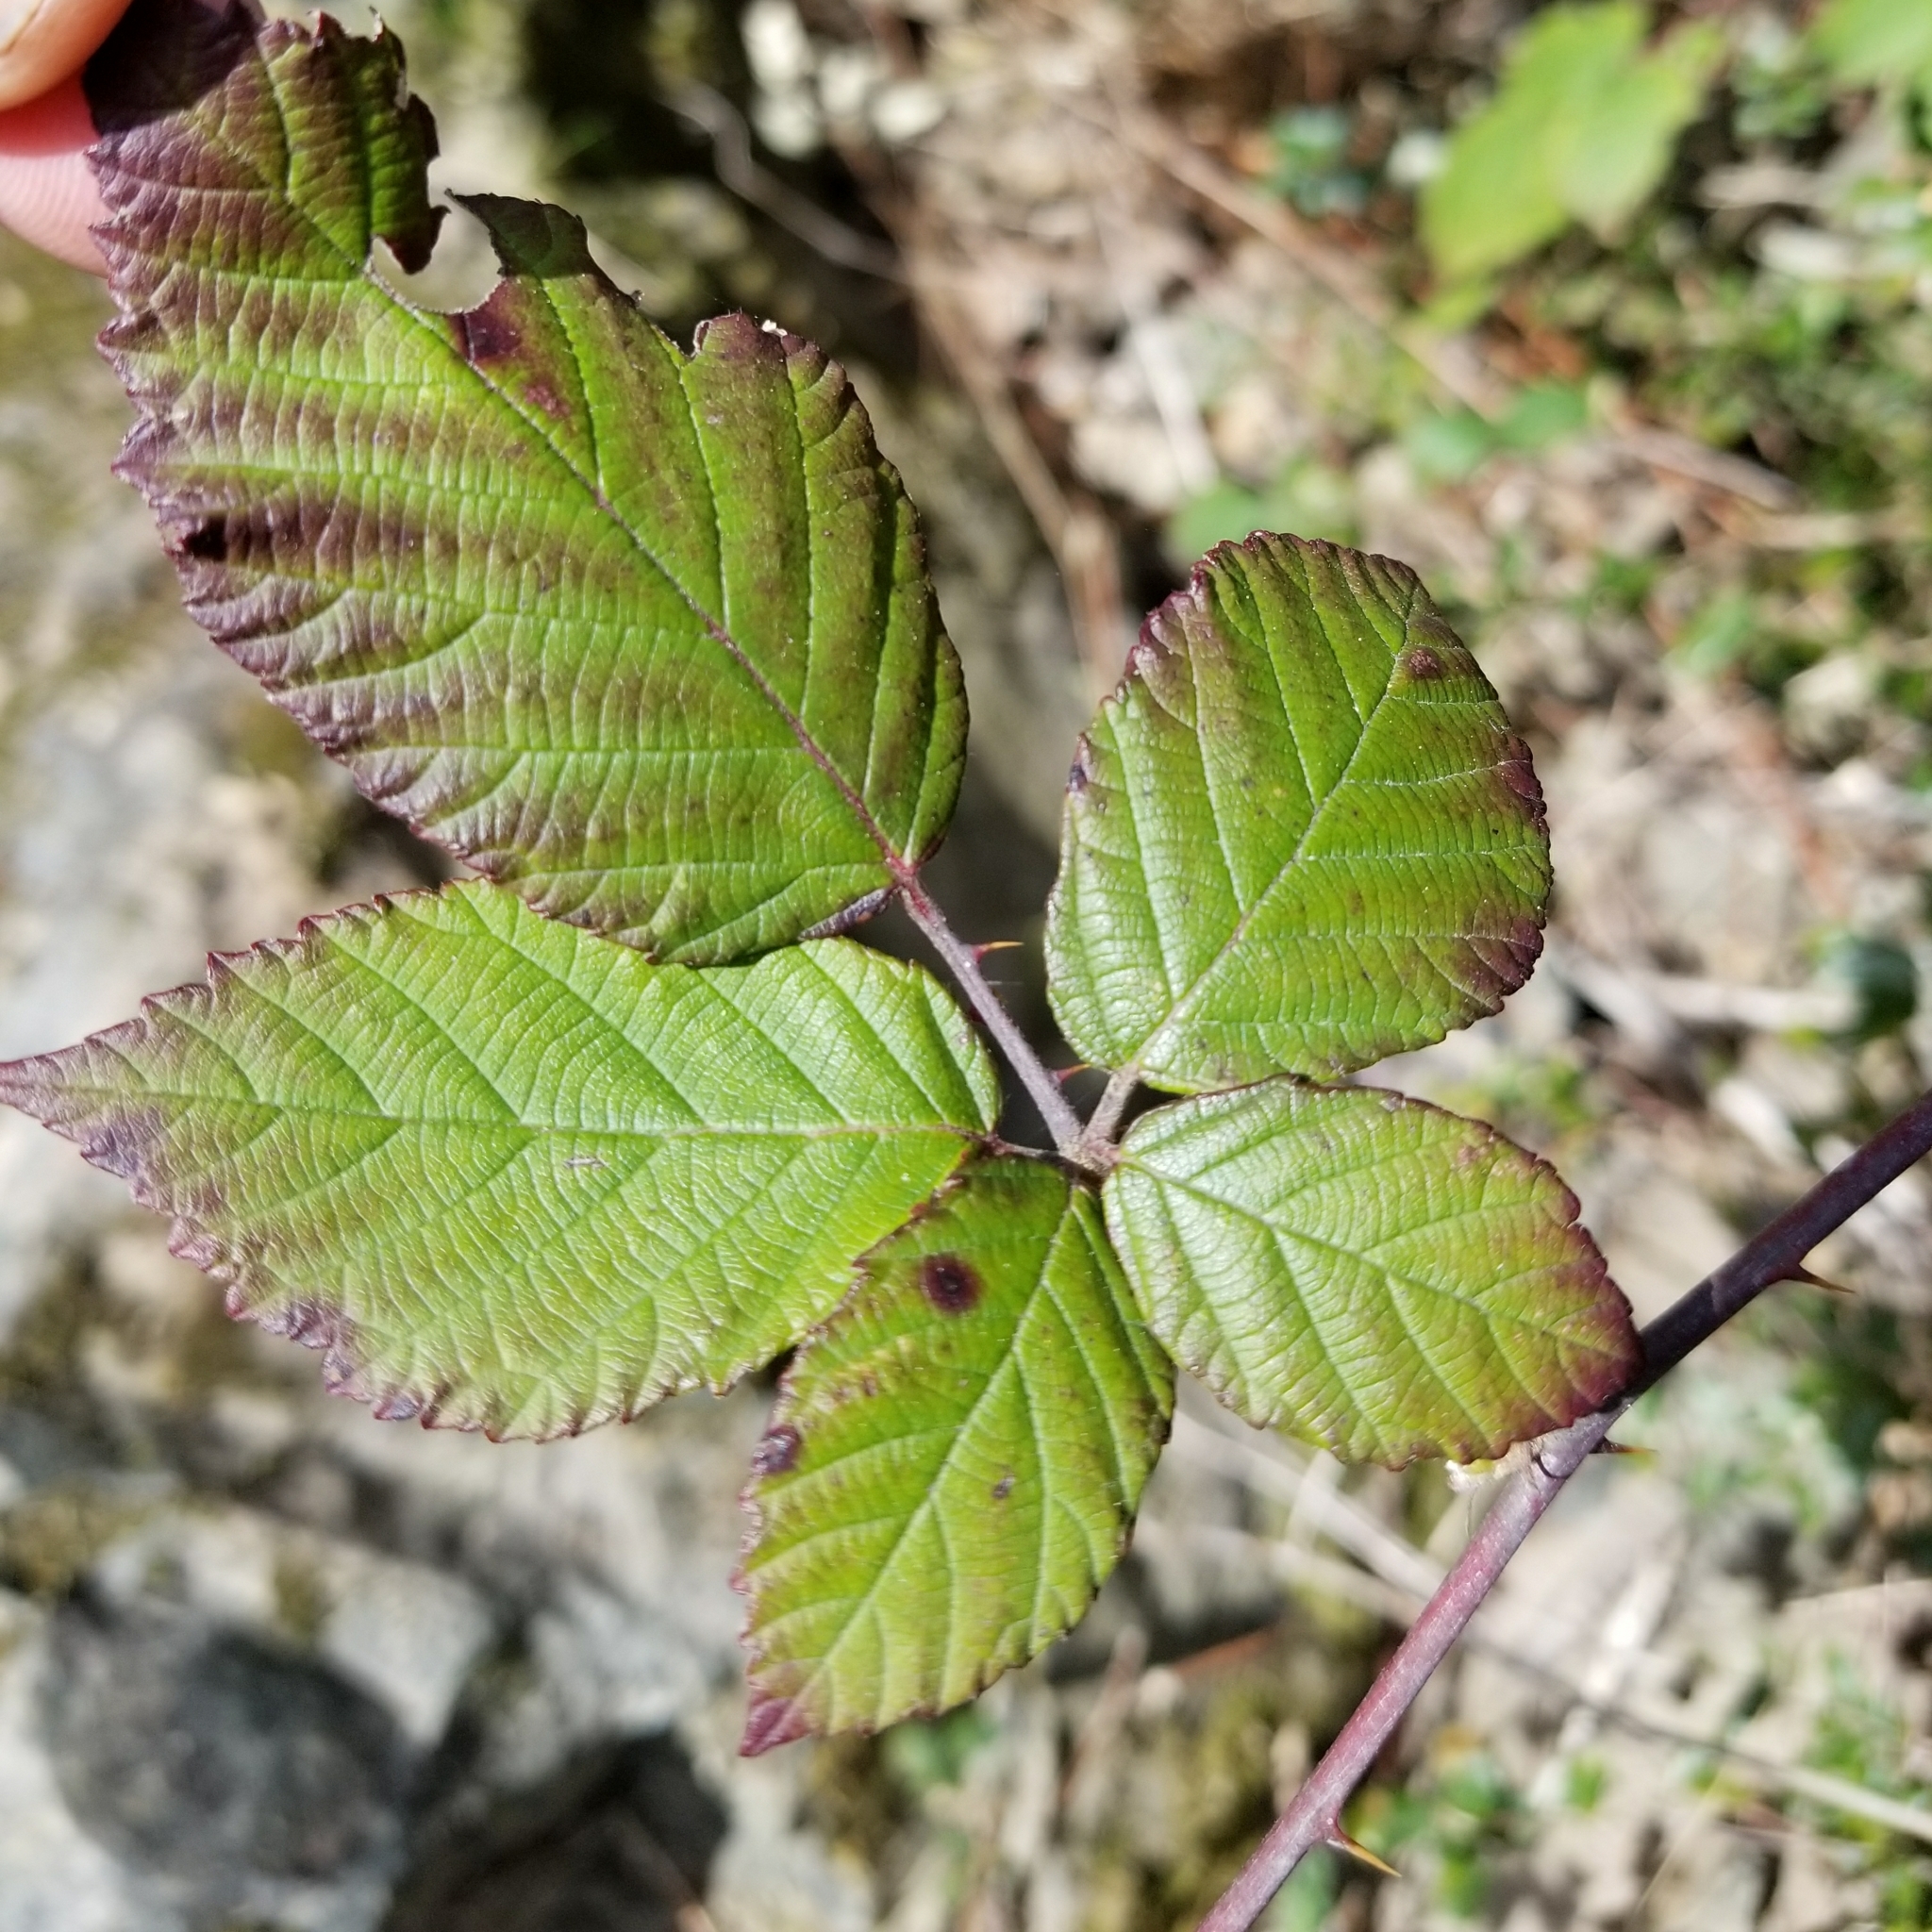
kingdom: Plantae
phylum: Tracheophyta
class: Magnoliopsida
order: Rosales
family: Rosaceae
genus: Rubus
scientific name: Rubus armeniacus
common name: Himalayan blackberry
